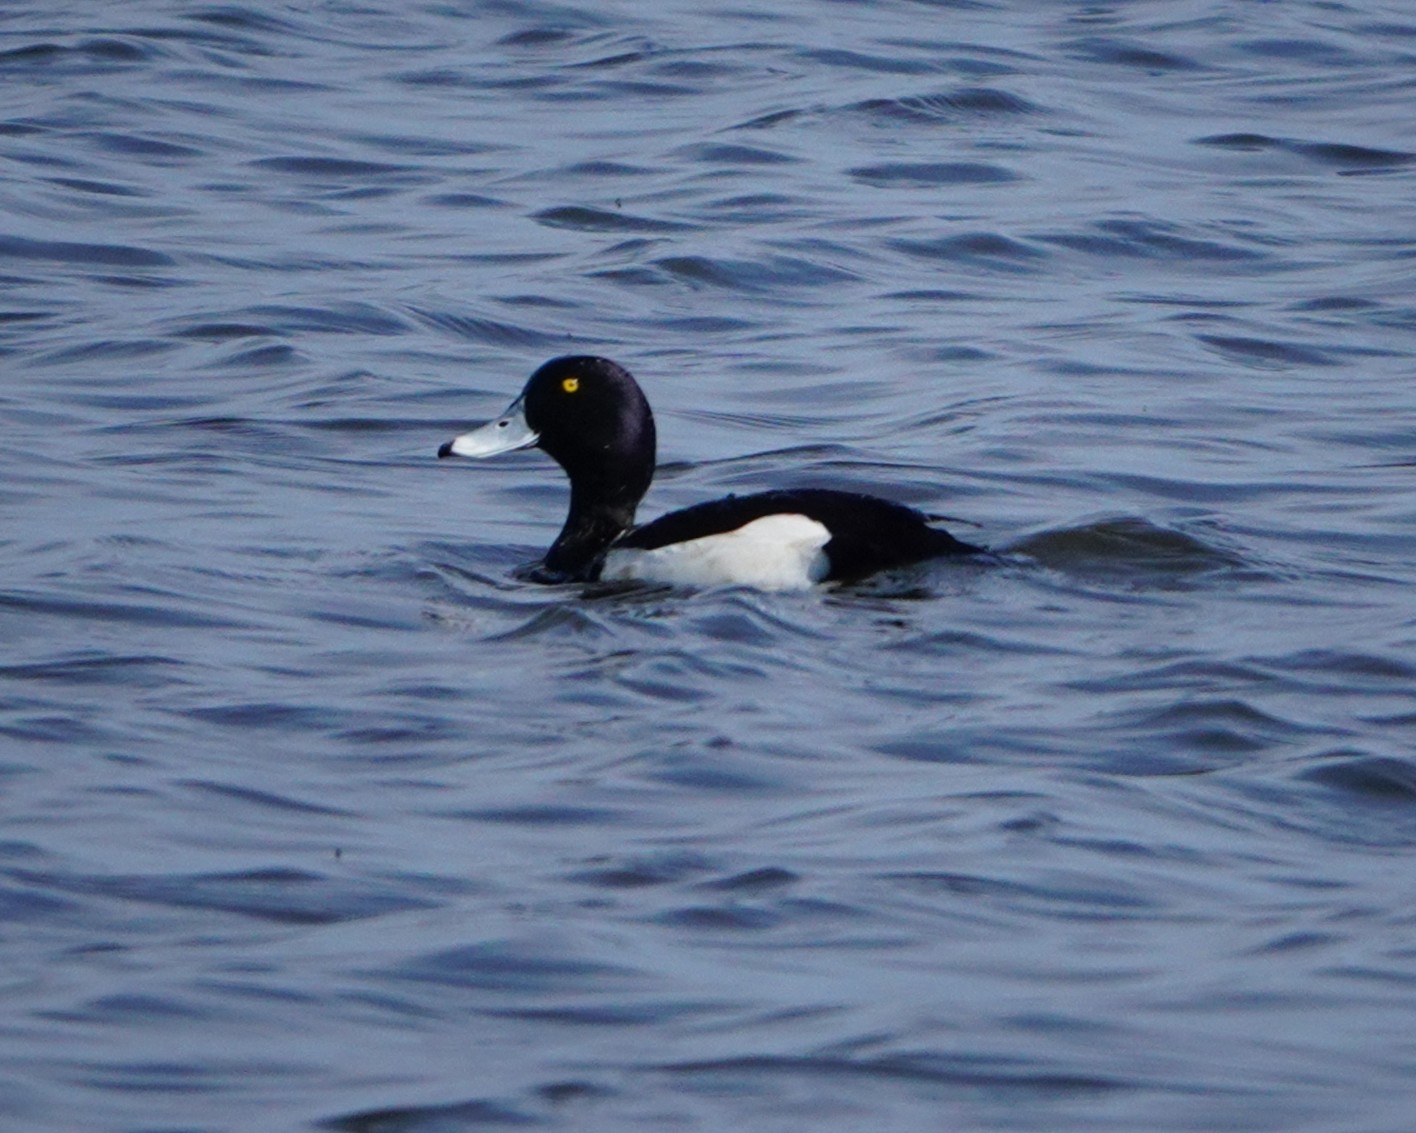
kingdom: Animalia
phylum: Chordata
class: Aves
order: Anseriformes
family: Anatidae
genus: Aythya
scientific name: Aythya fuligula
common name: Tufted duck
